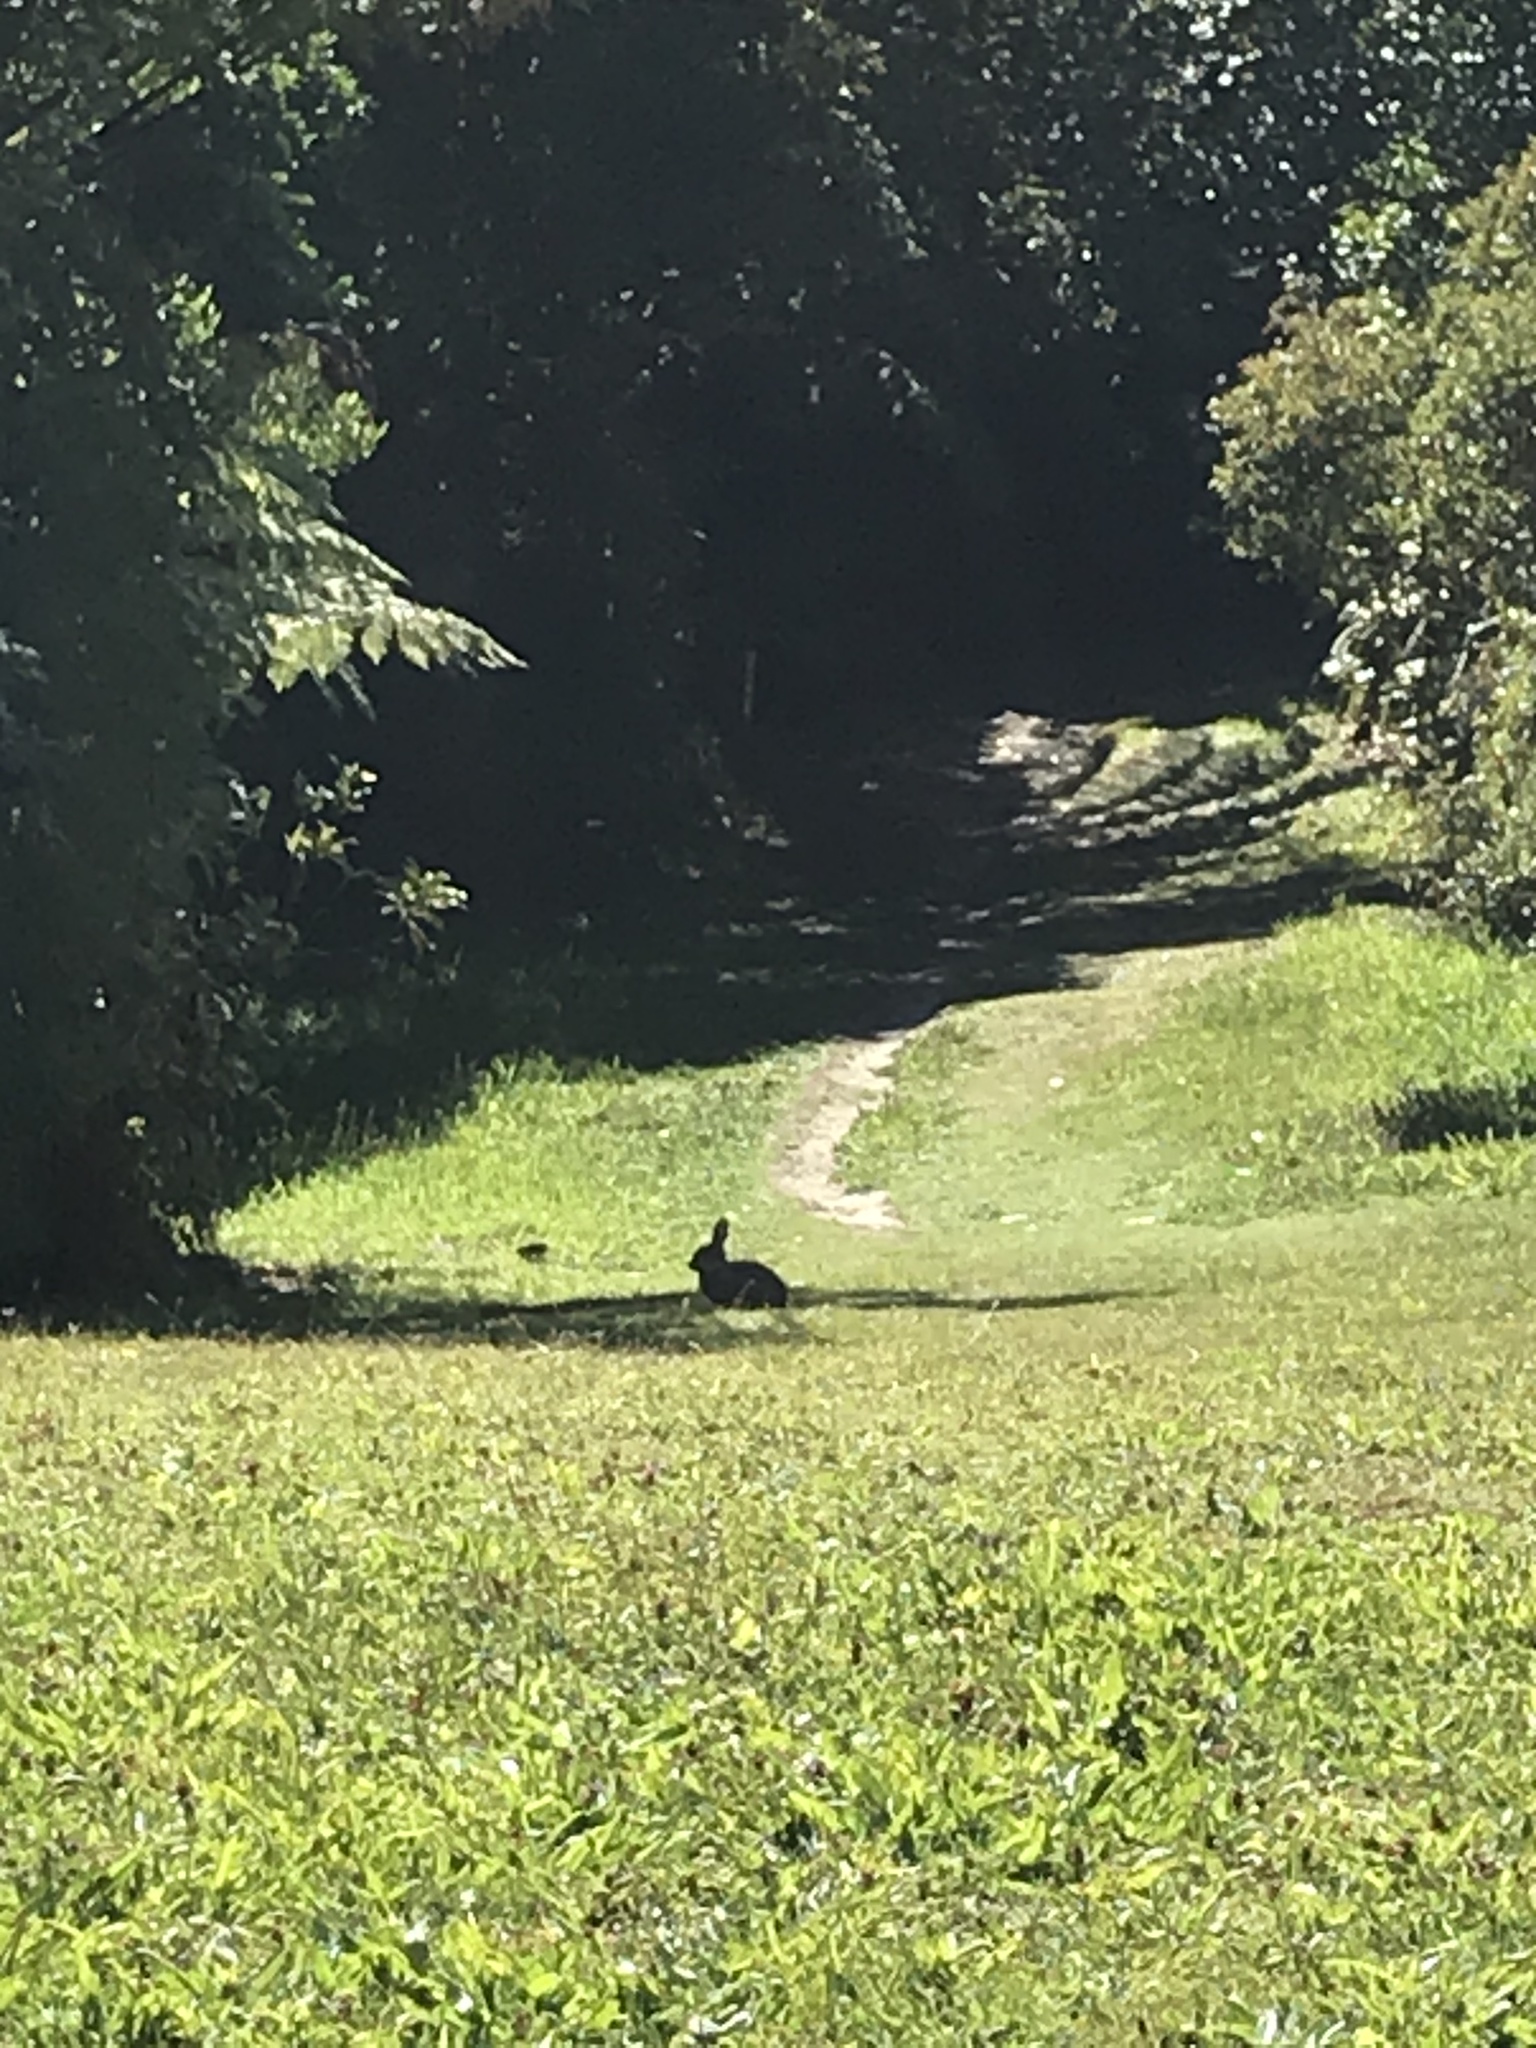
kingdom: Animalia
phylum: Chordata
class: Mammalia
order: Lagomorpha
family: Leporidae
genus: Oryctolagus
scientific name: Oryctolagus cuniculus
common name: European rabbit
